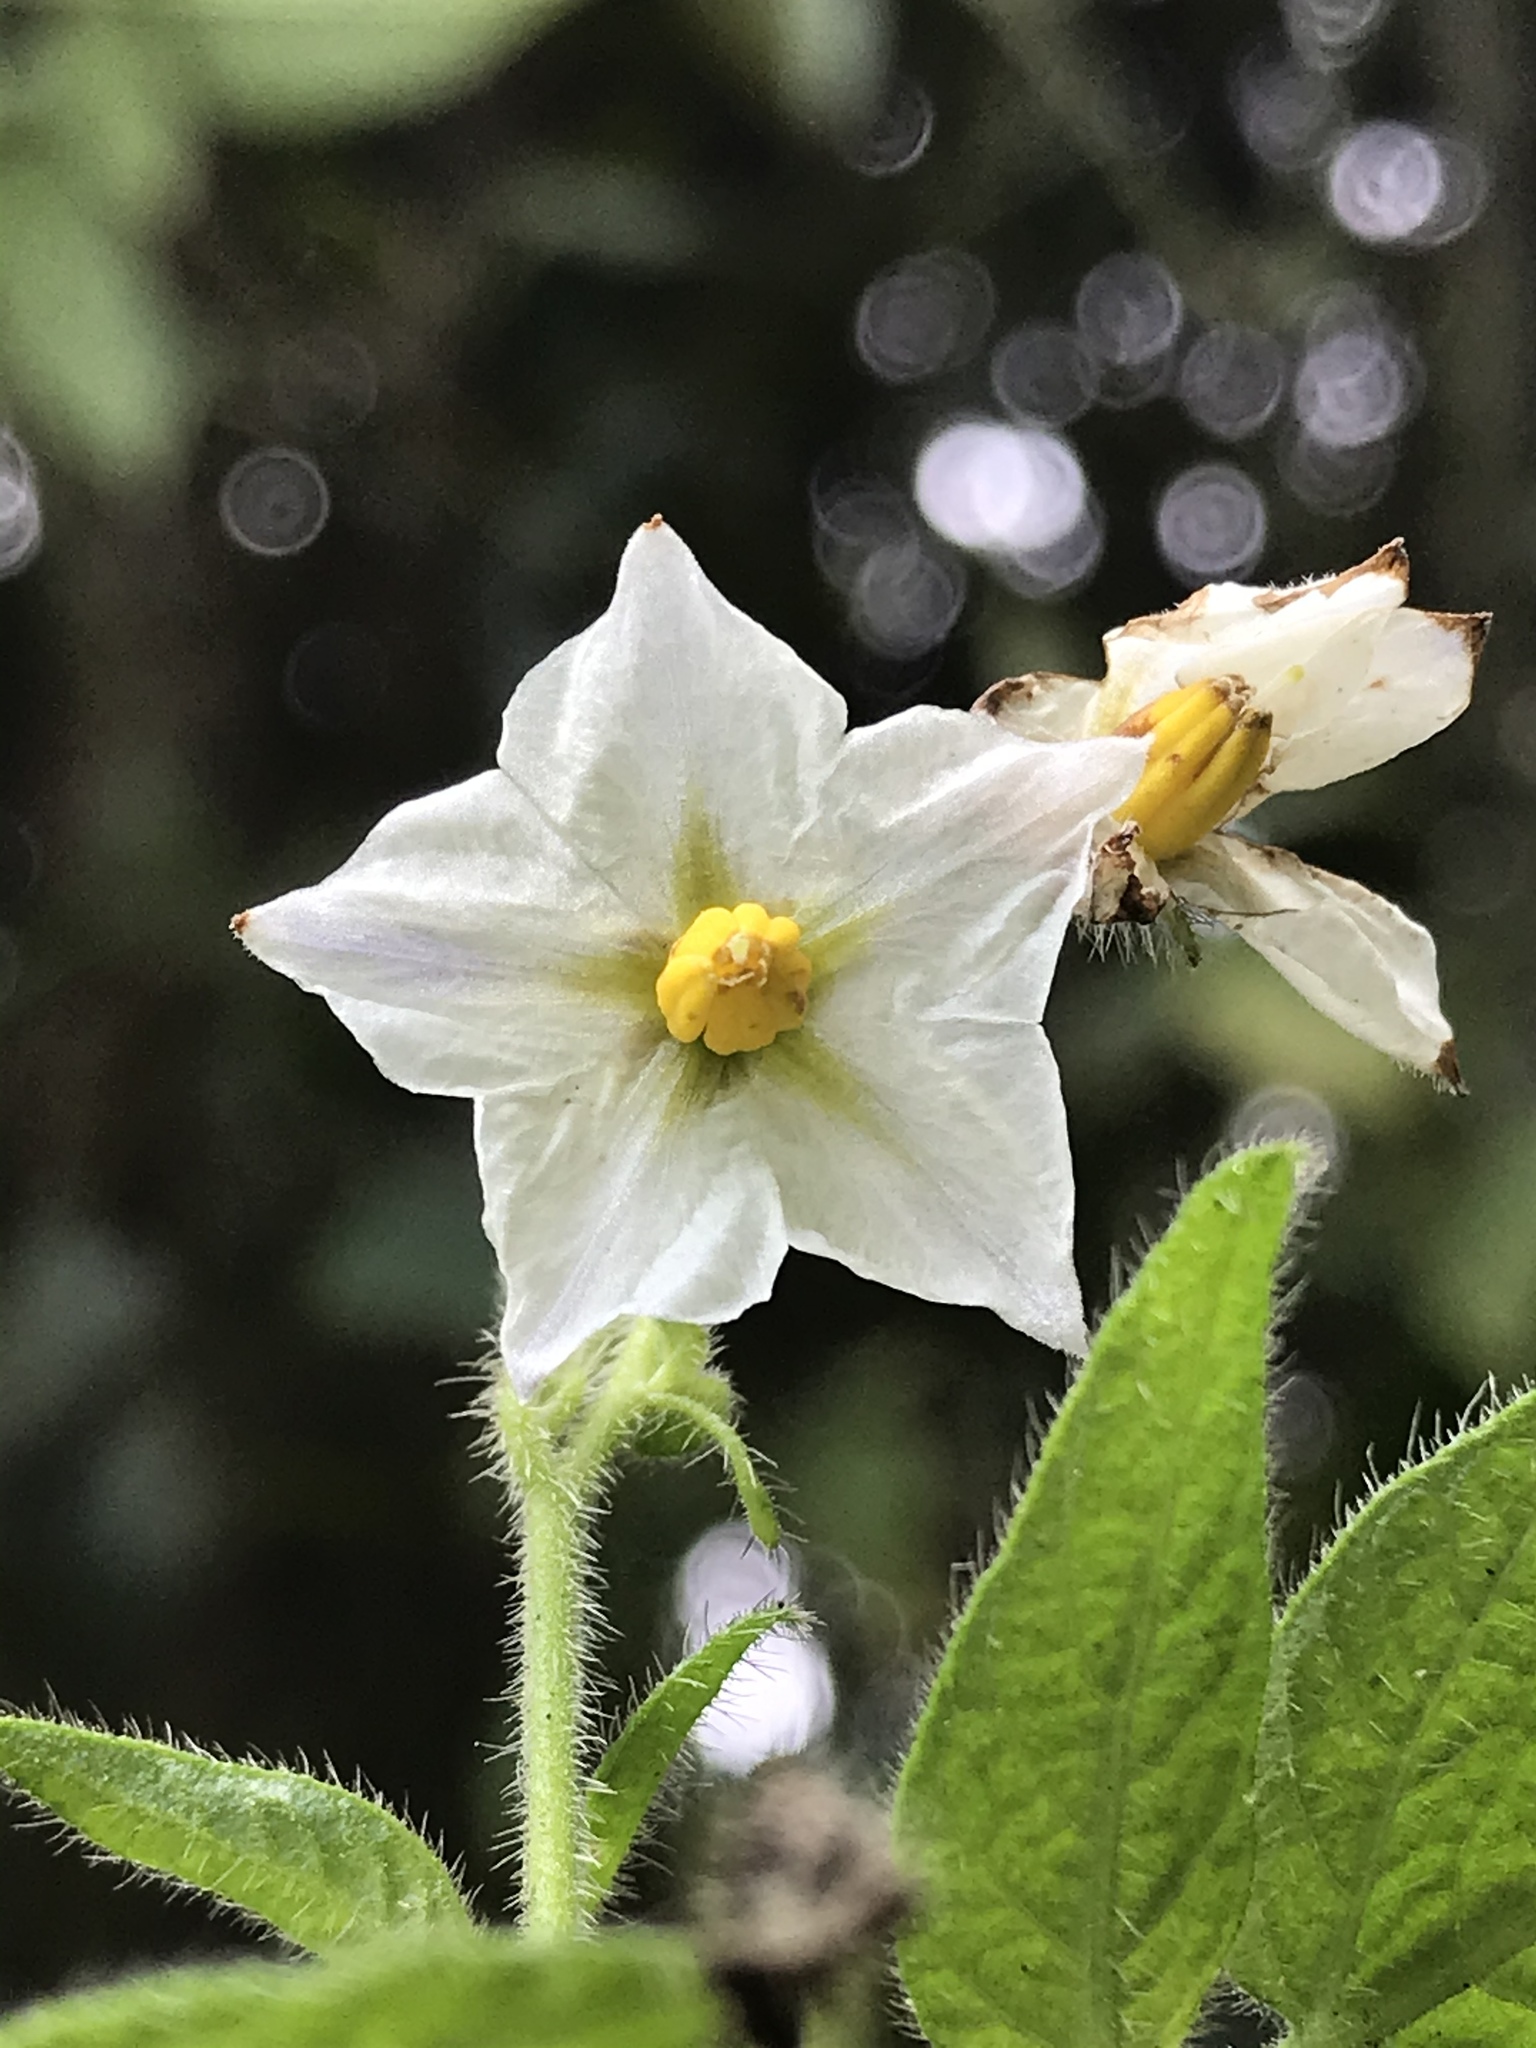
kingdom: Plantae
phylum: Tracheophyta
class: Magnoliopsida
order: Solanales
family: Solanaceae
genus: Solanum
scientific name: Solanum caripense
